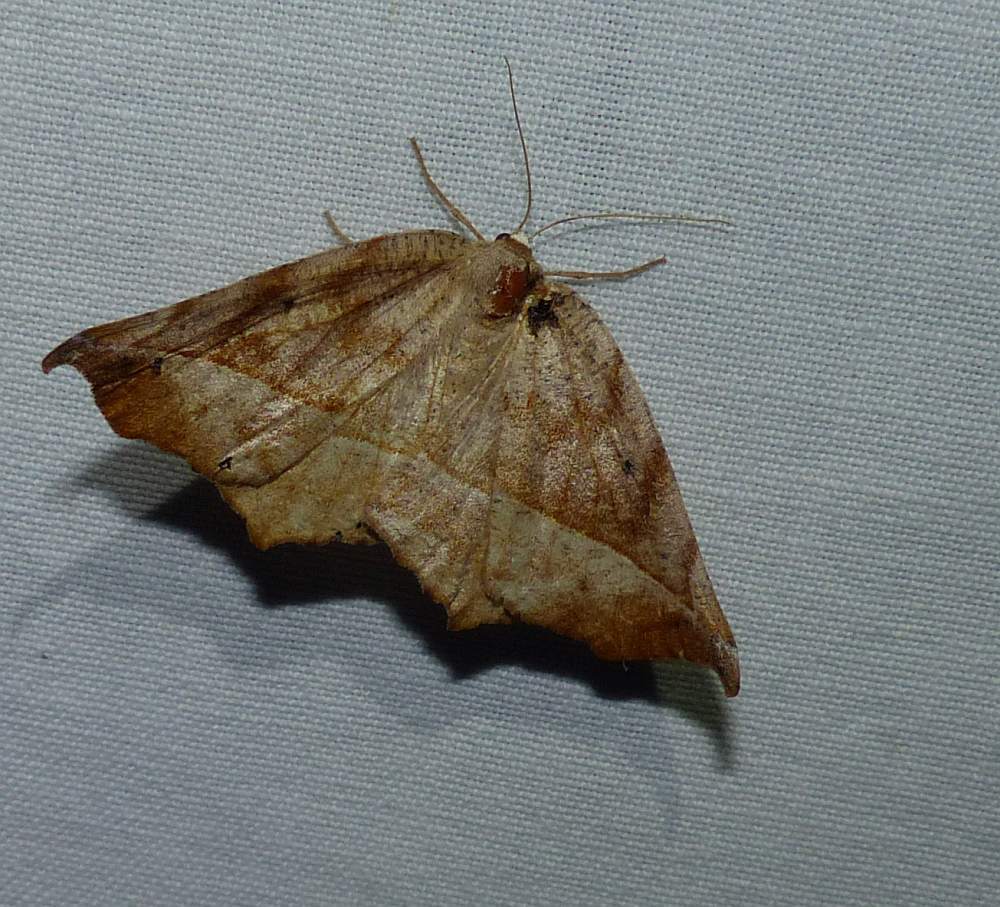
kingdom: Animalia
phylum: Arthropoda
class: Insecta
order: Lepidoptera
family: Geometridae
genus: Eutrapela
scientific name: Eutrapela clemataria
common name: Curved-toothed geometer
